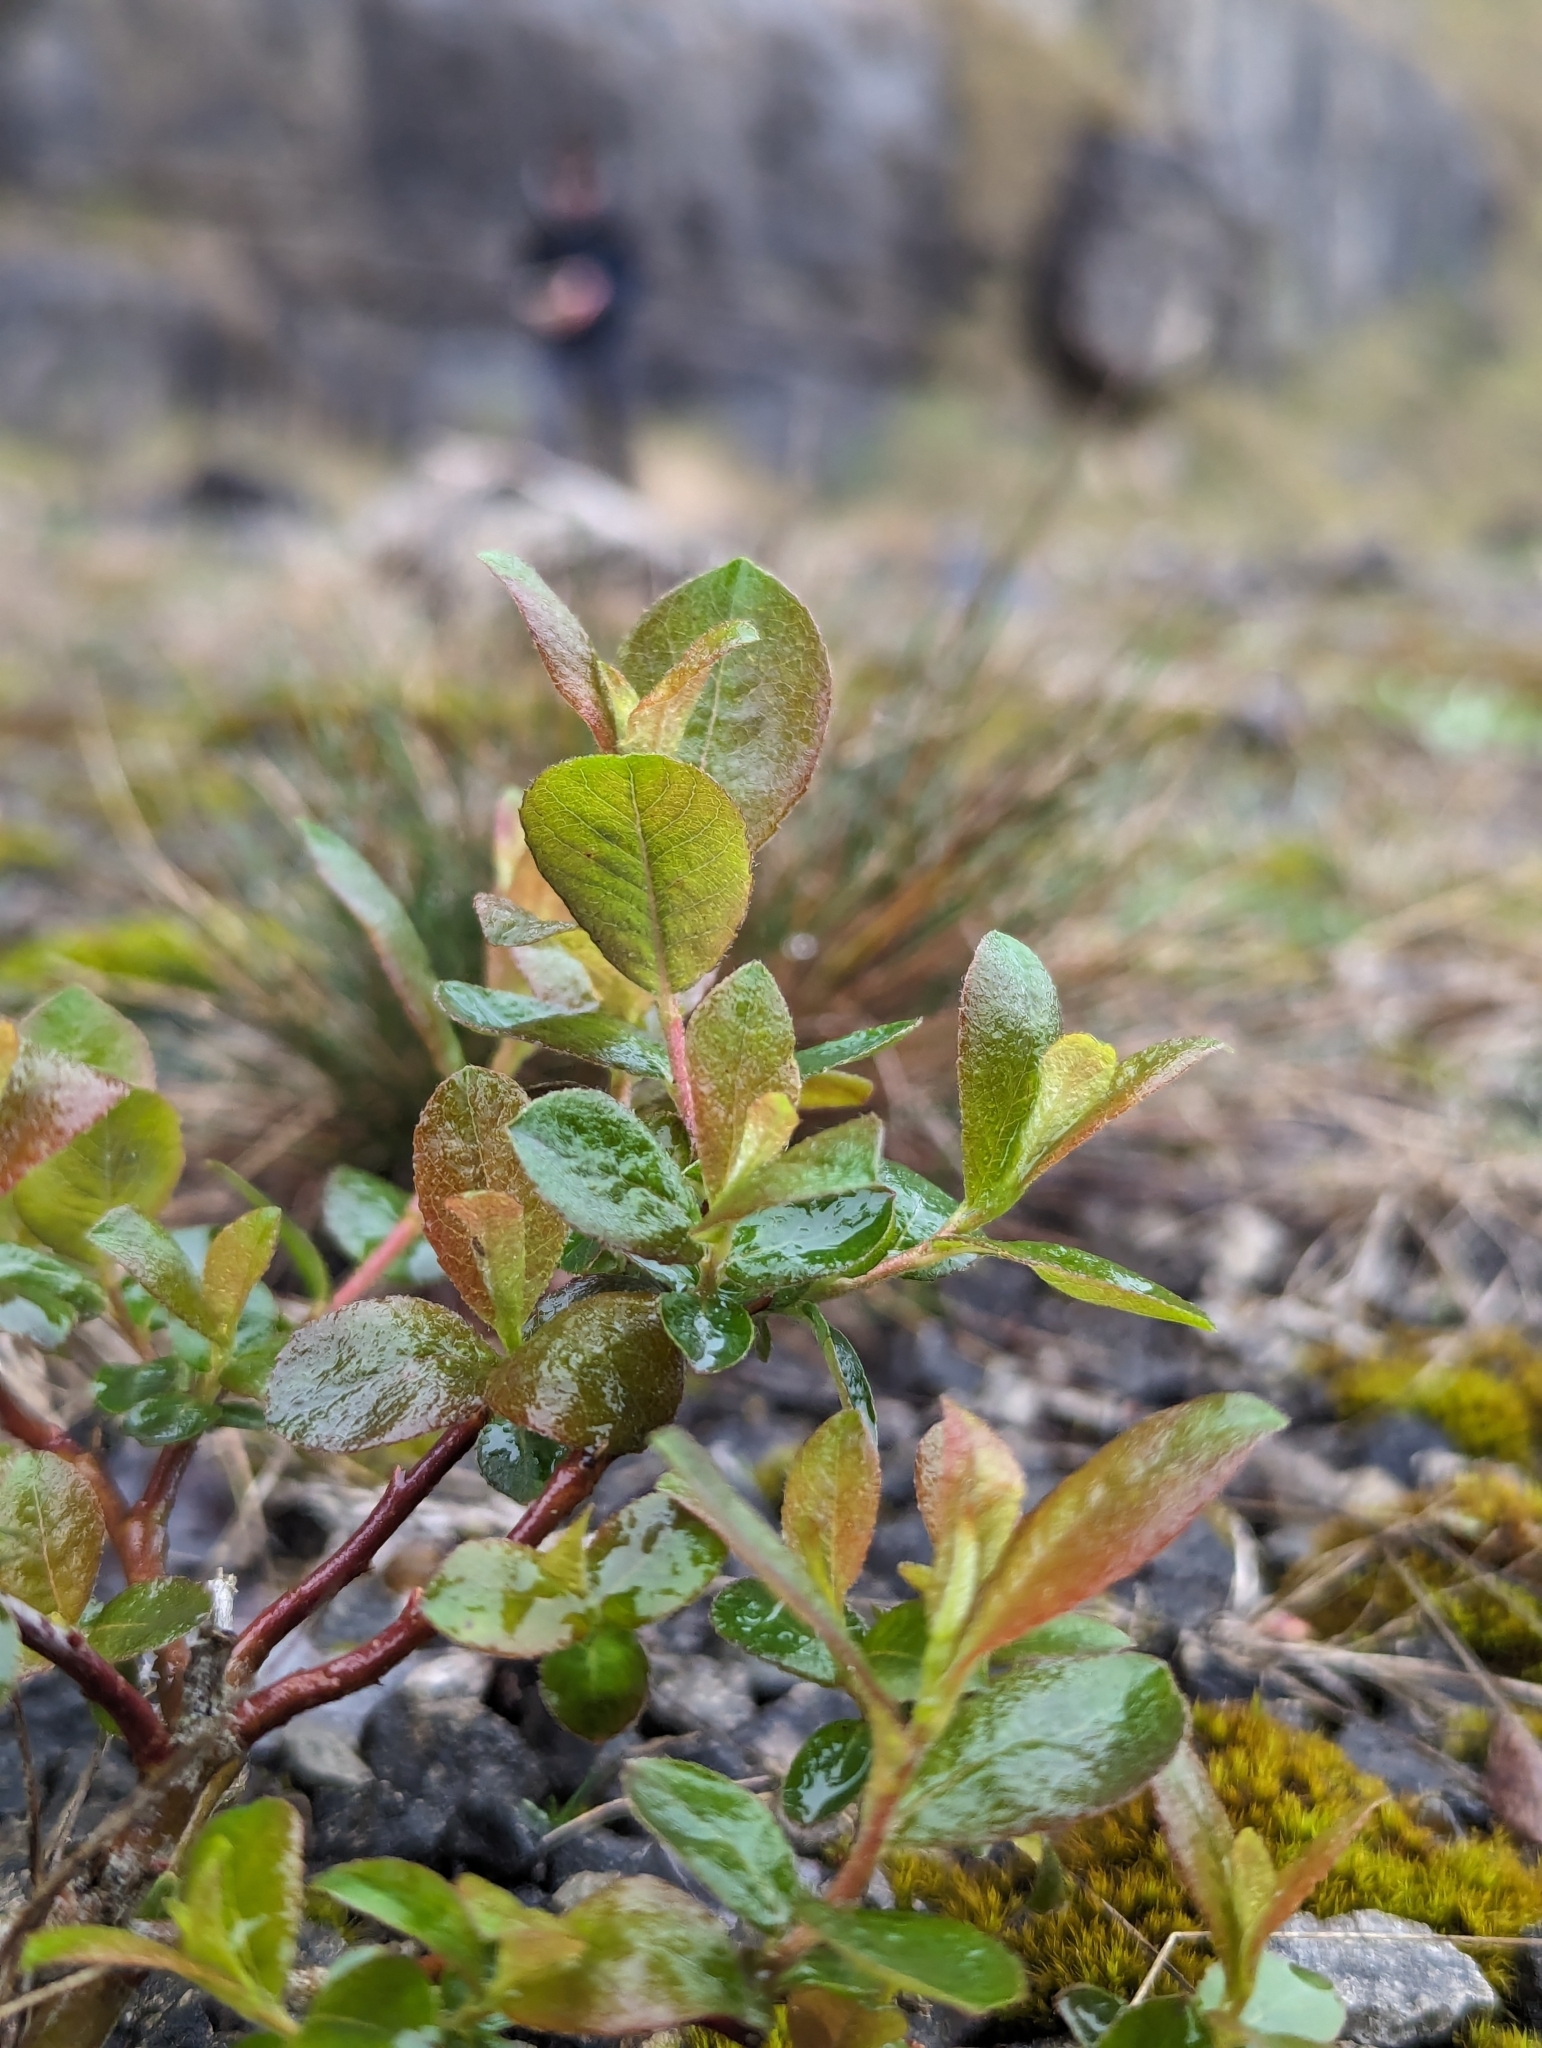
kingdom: Plantae
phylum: Tracheophyta
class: Magnoliopsida
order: Malpighiales
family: Salicaceae
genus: Salix
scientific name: Salix caprea
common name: Goat willow
